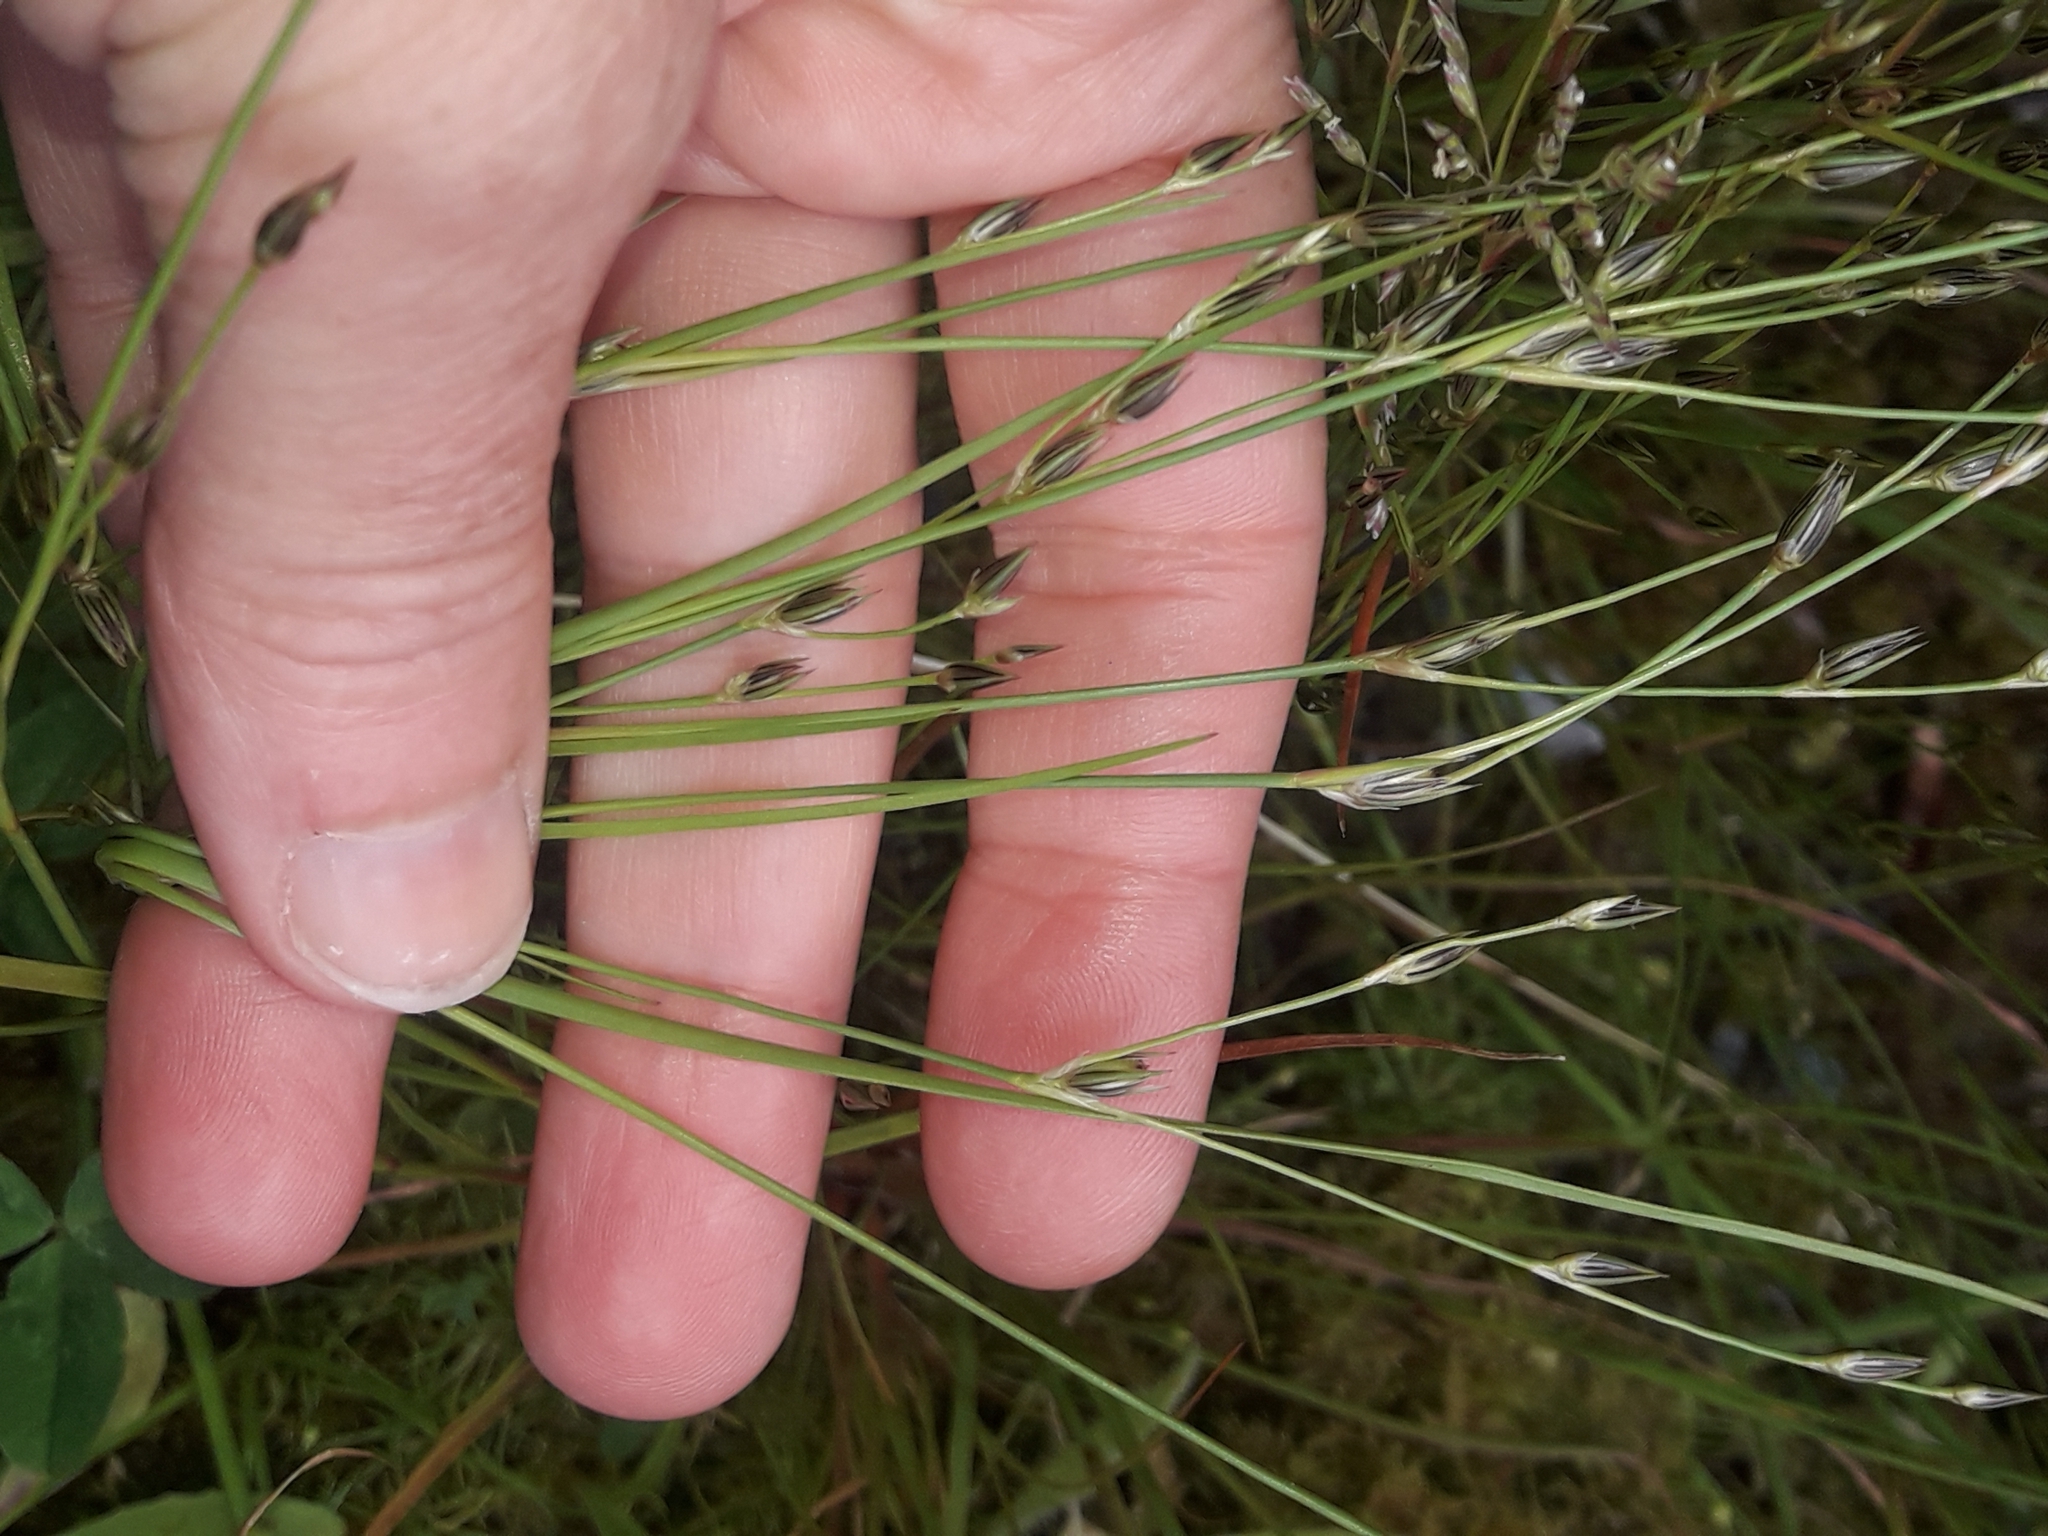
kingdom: Plantae
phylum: Tracheophyta
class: Liliopsida
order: Poales
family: Juncaceae
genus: Juncus
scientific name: Juncus bufonius
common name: Toad rush
